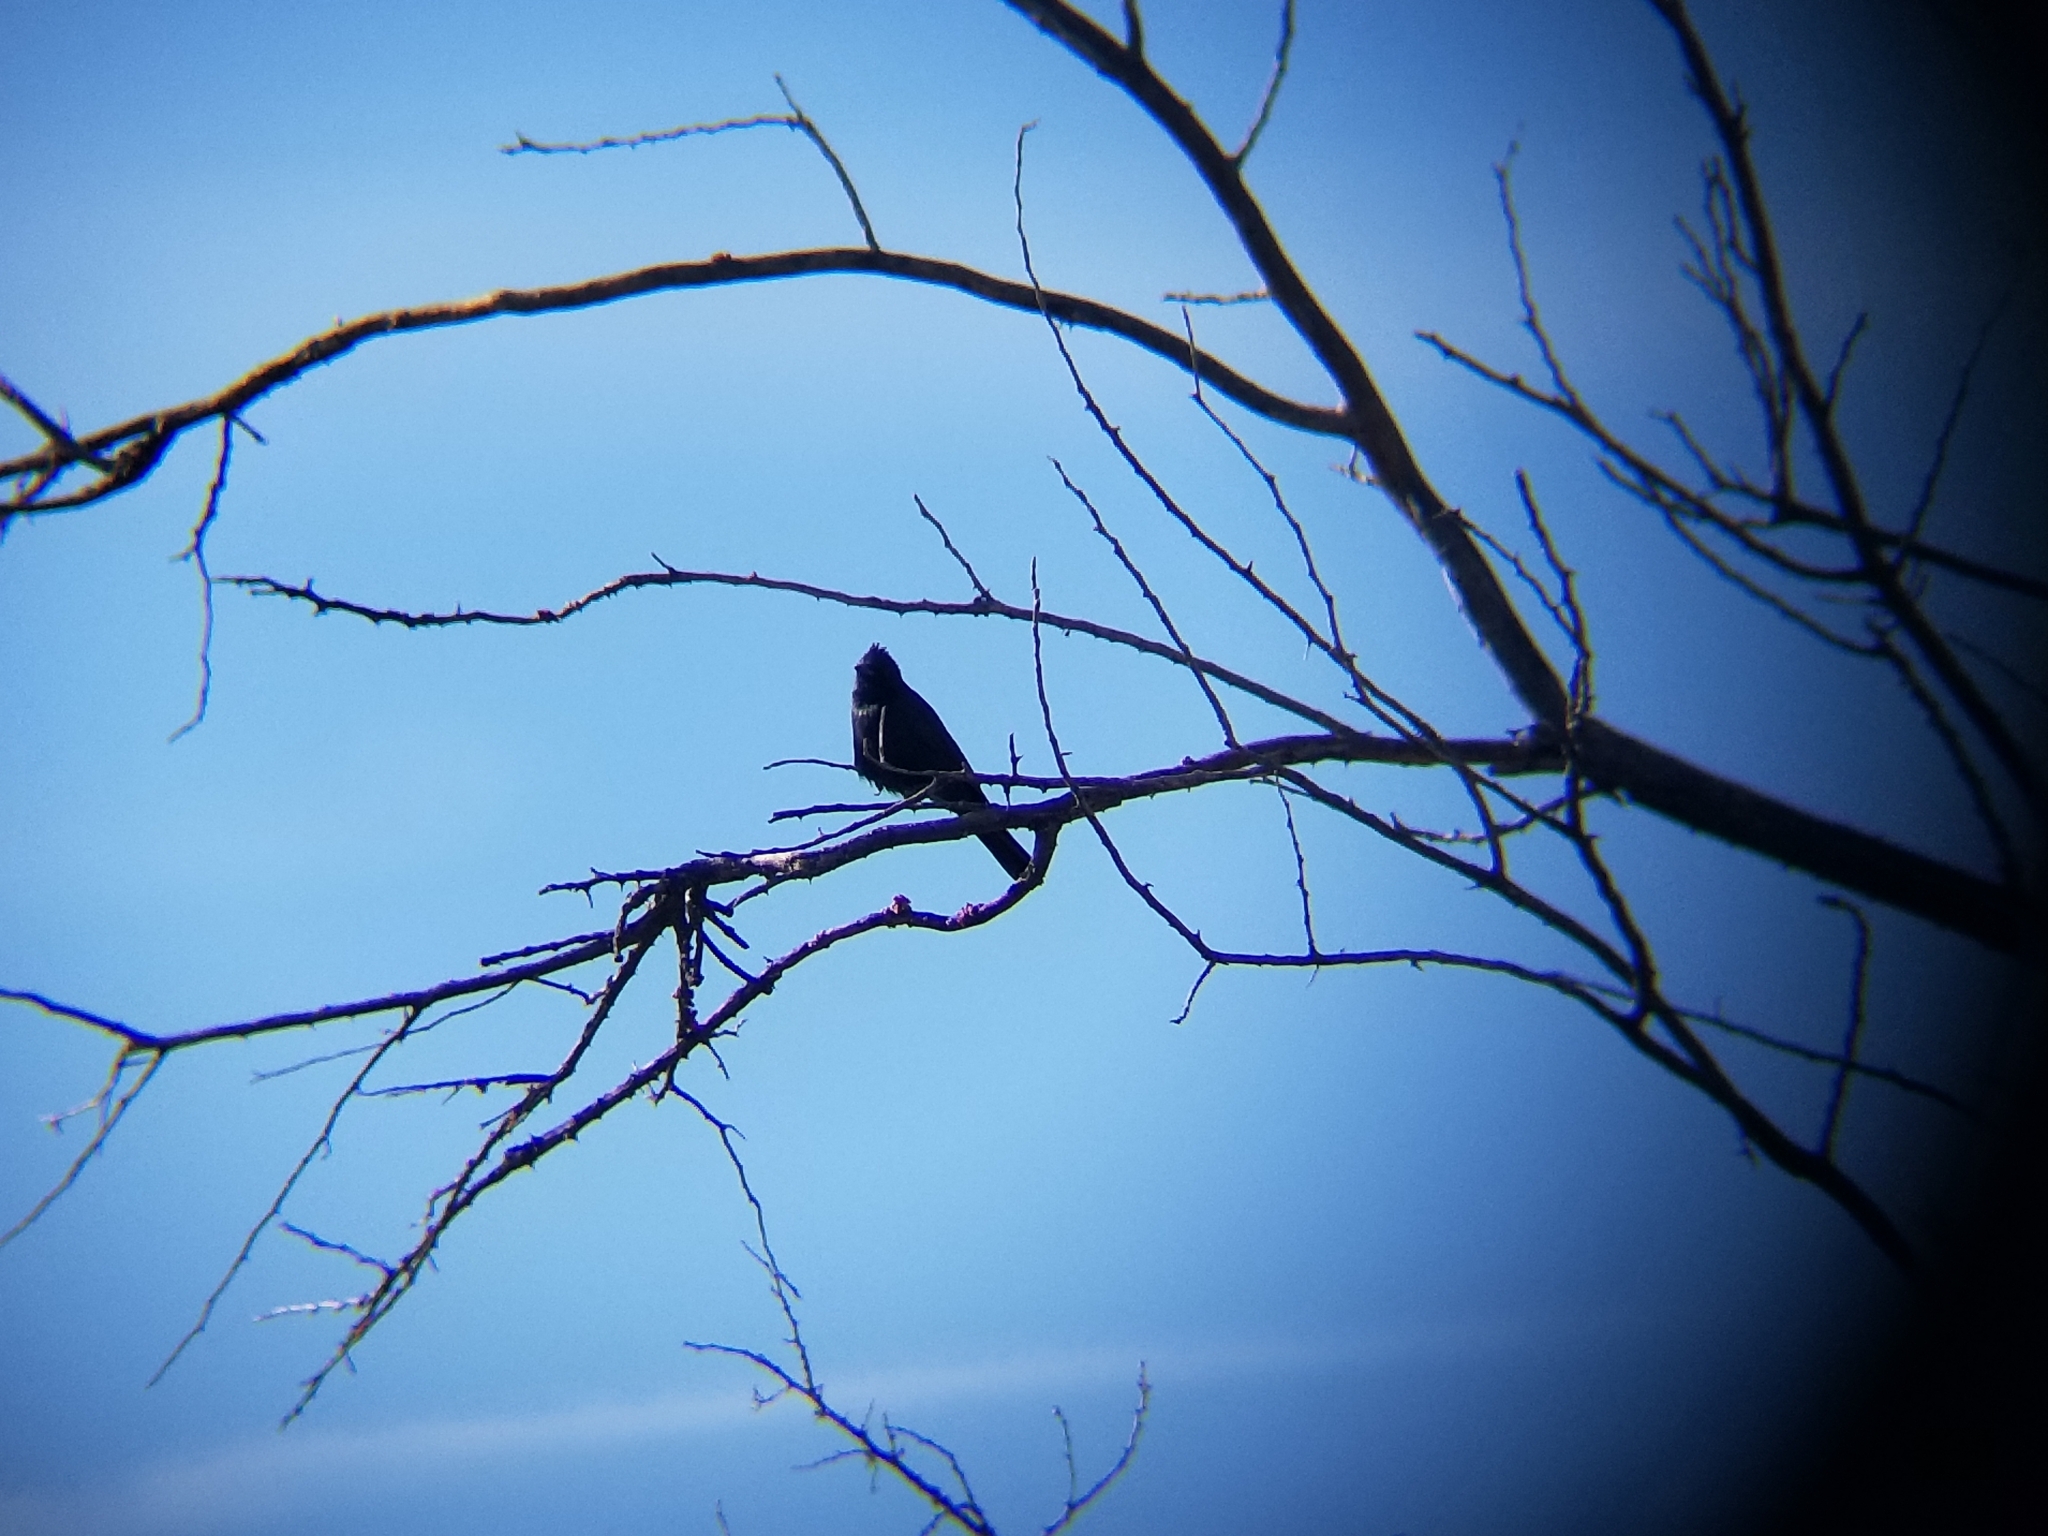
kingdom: Animalia
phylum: Chordata
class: Aves
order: Passeriformes
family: Ptilogonatidae
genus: Phainopepla
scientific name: Phainopepla nitens
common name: Phainopepla
